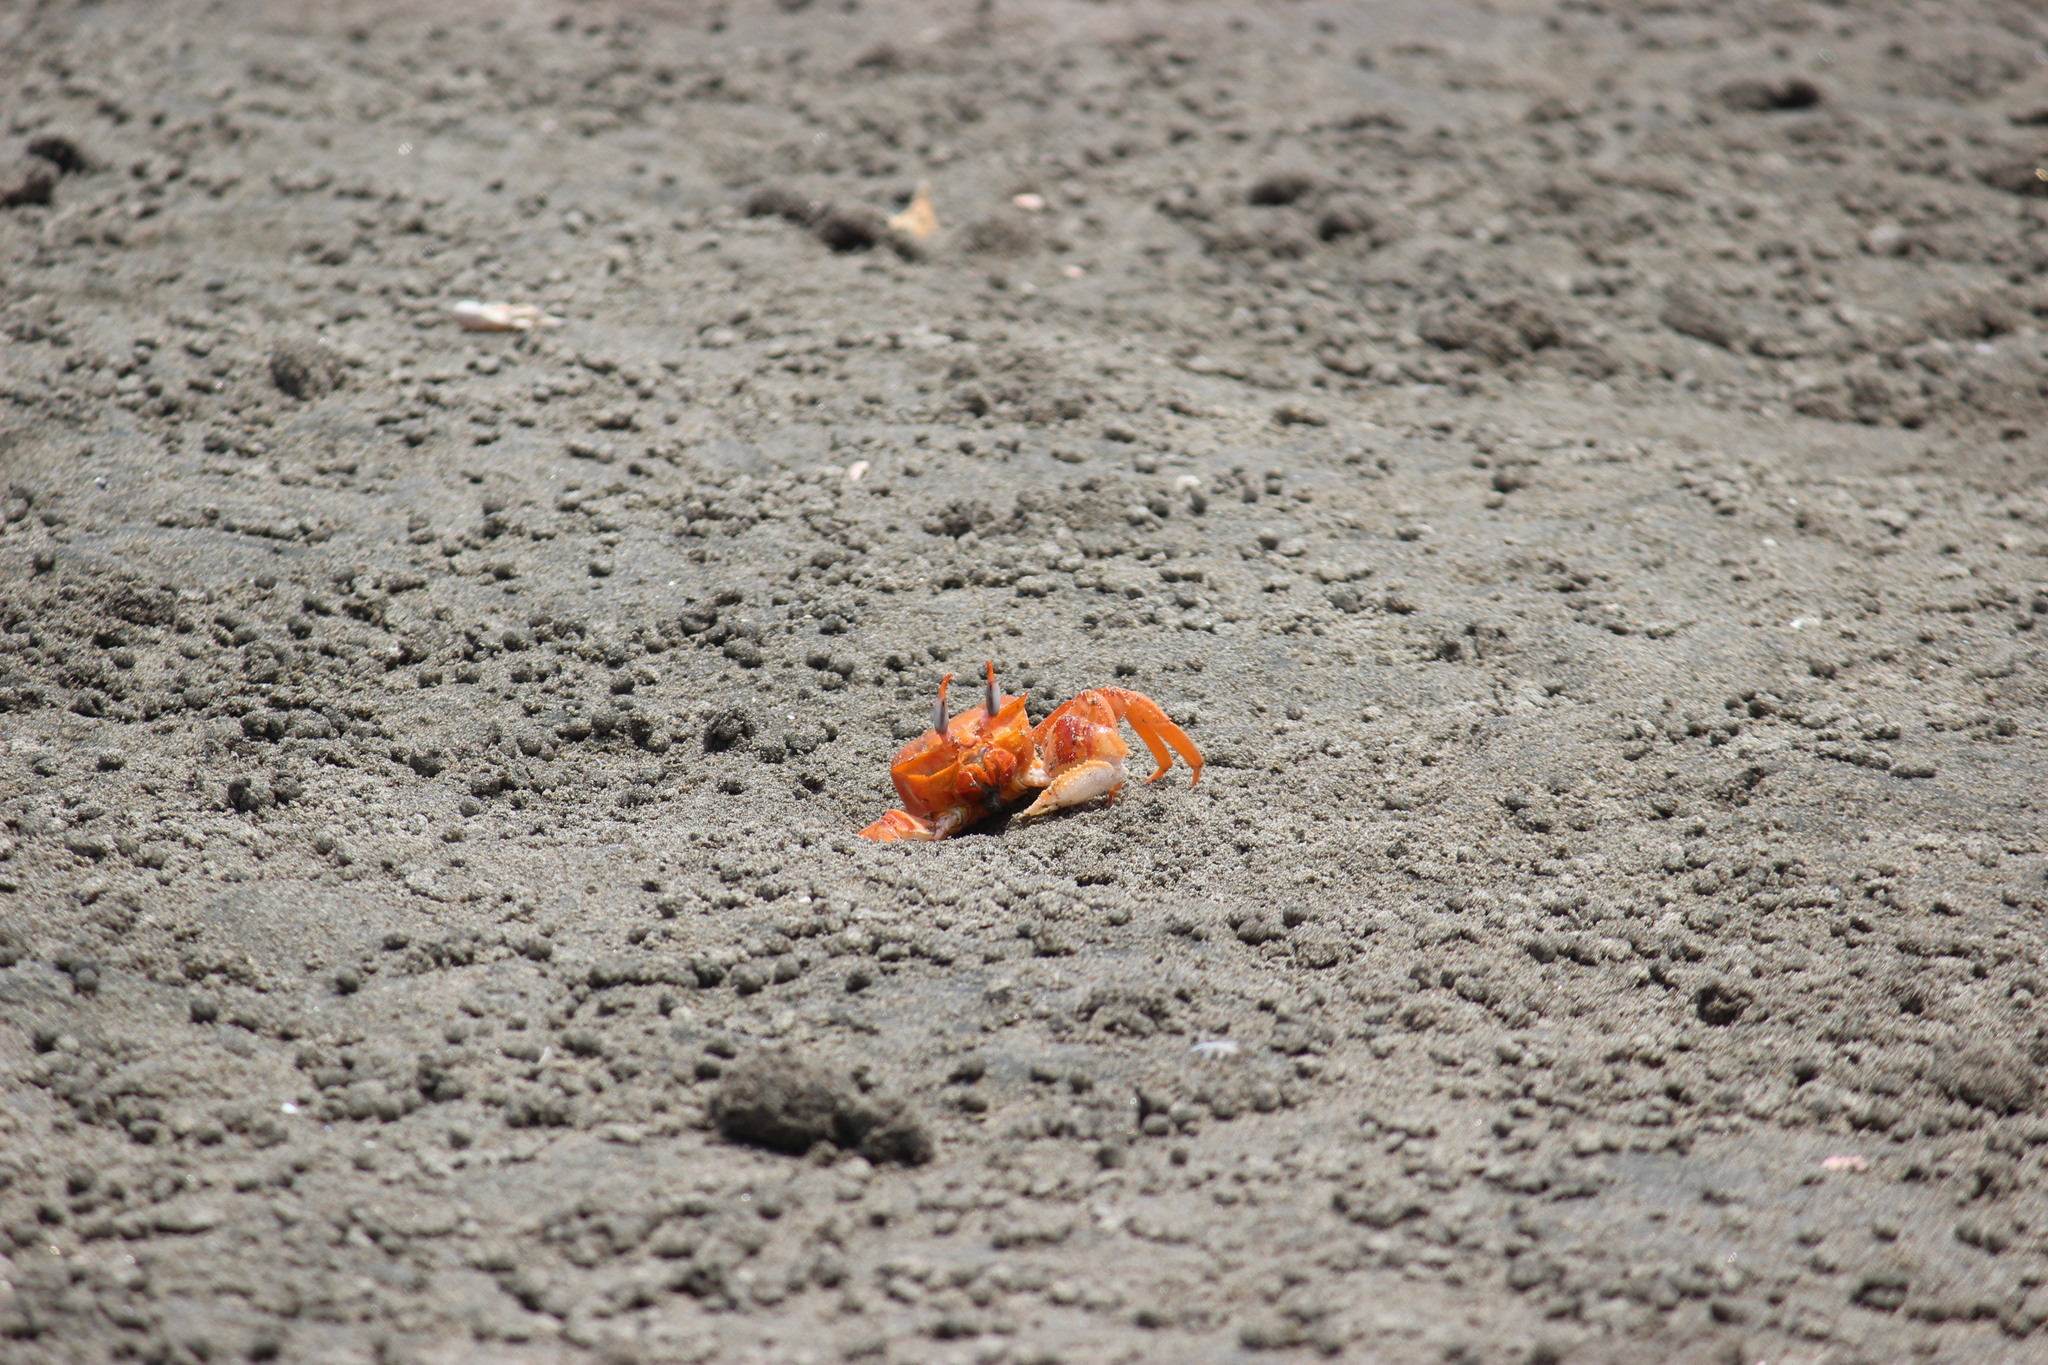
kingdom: Animalia
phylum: Arthropoda
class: Malacostraca
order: Decapoda
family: Ocypodidae
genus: Ocypode
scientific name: Ocypode gaudichaudii
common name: Pacific ghost crab
